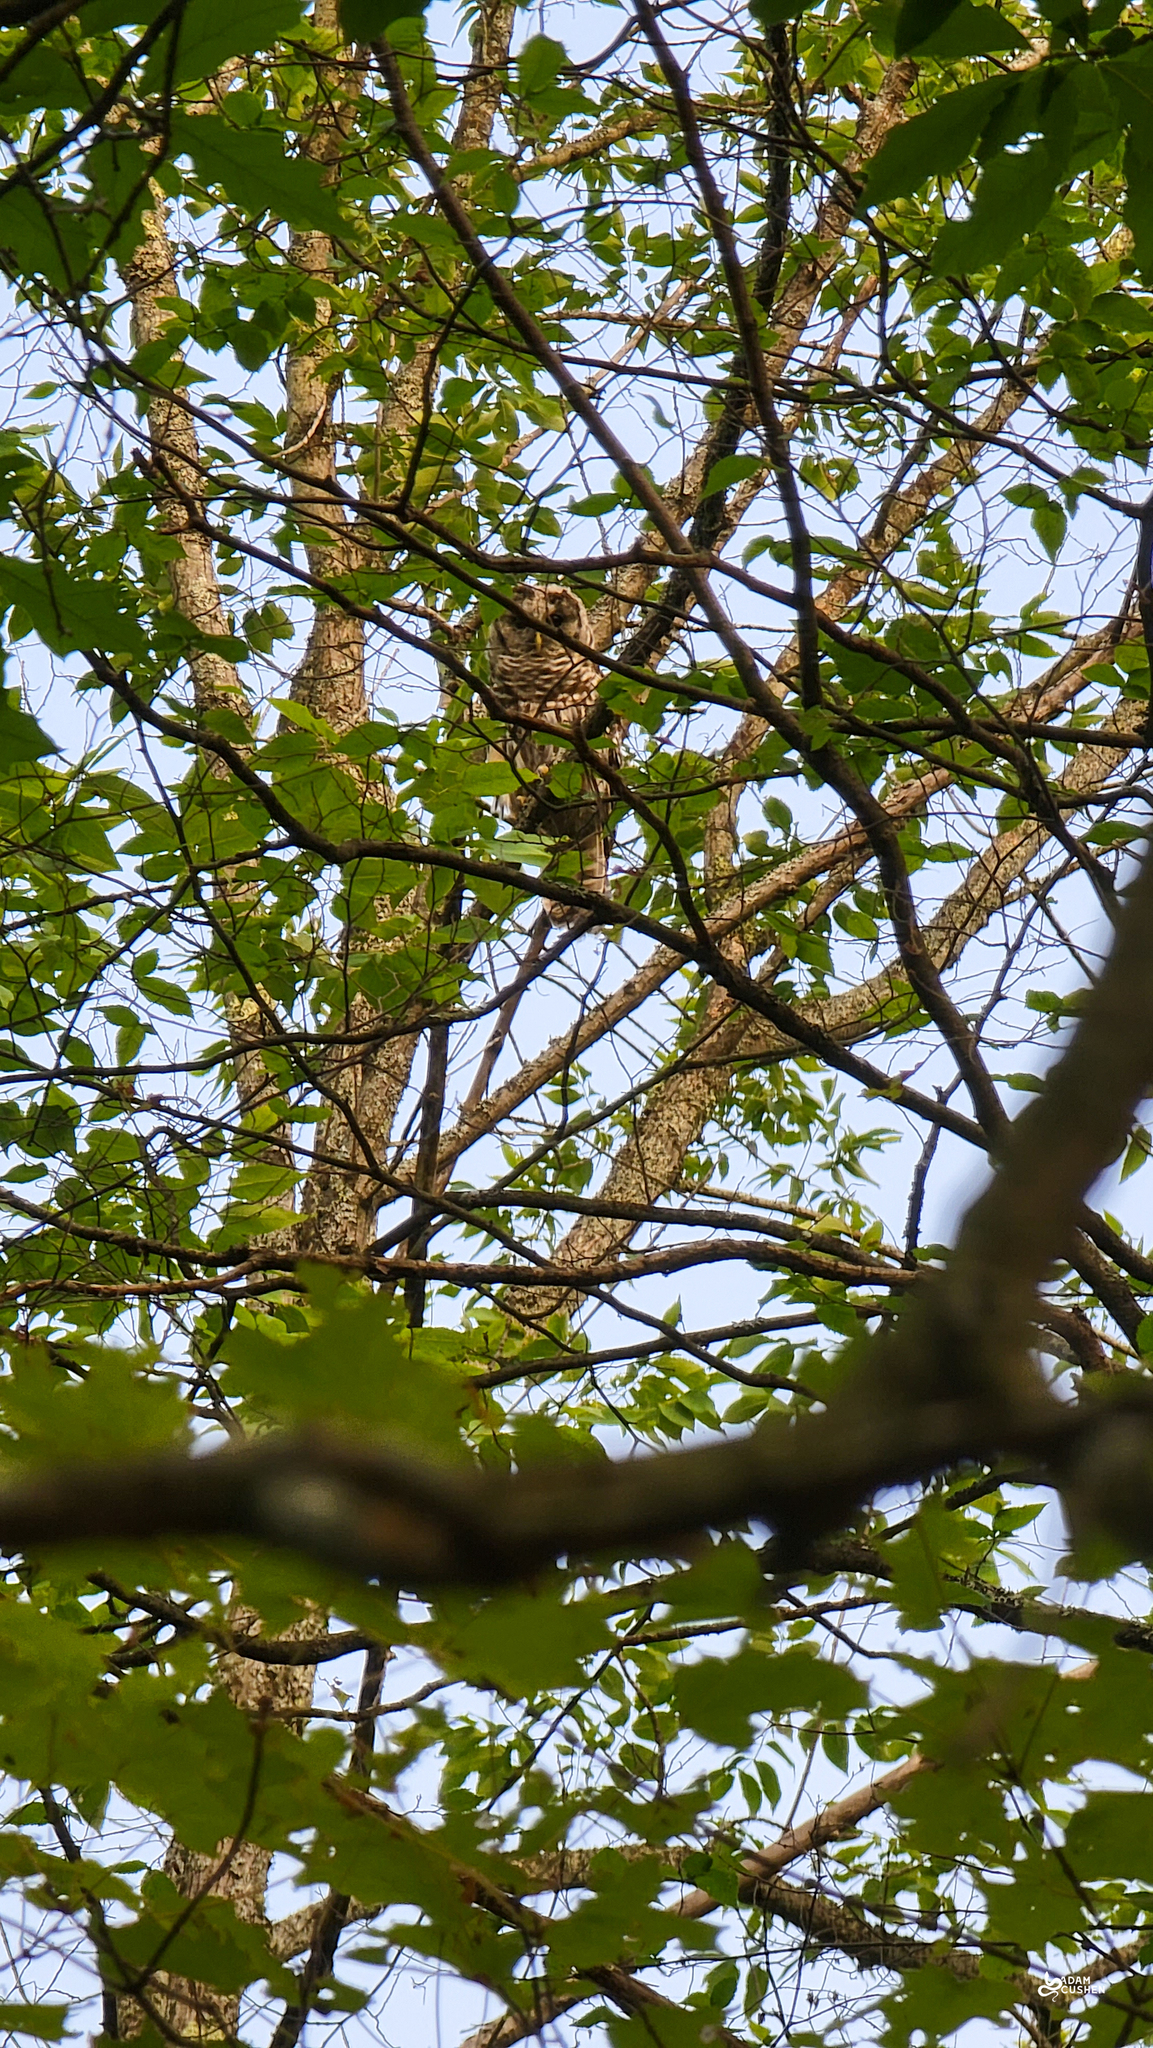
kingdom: Animalia
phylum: Chordata
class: Aves
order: Strigiformes
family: Strigidae
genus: Strix
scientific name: Strix varia
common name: Barred owl
